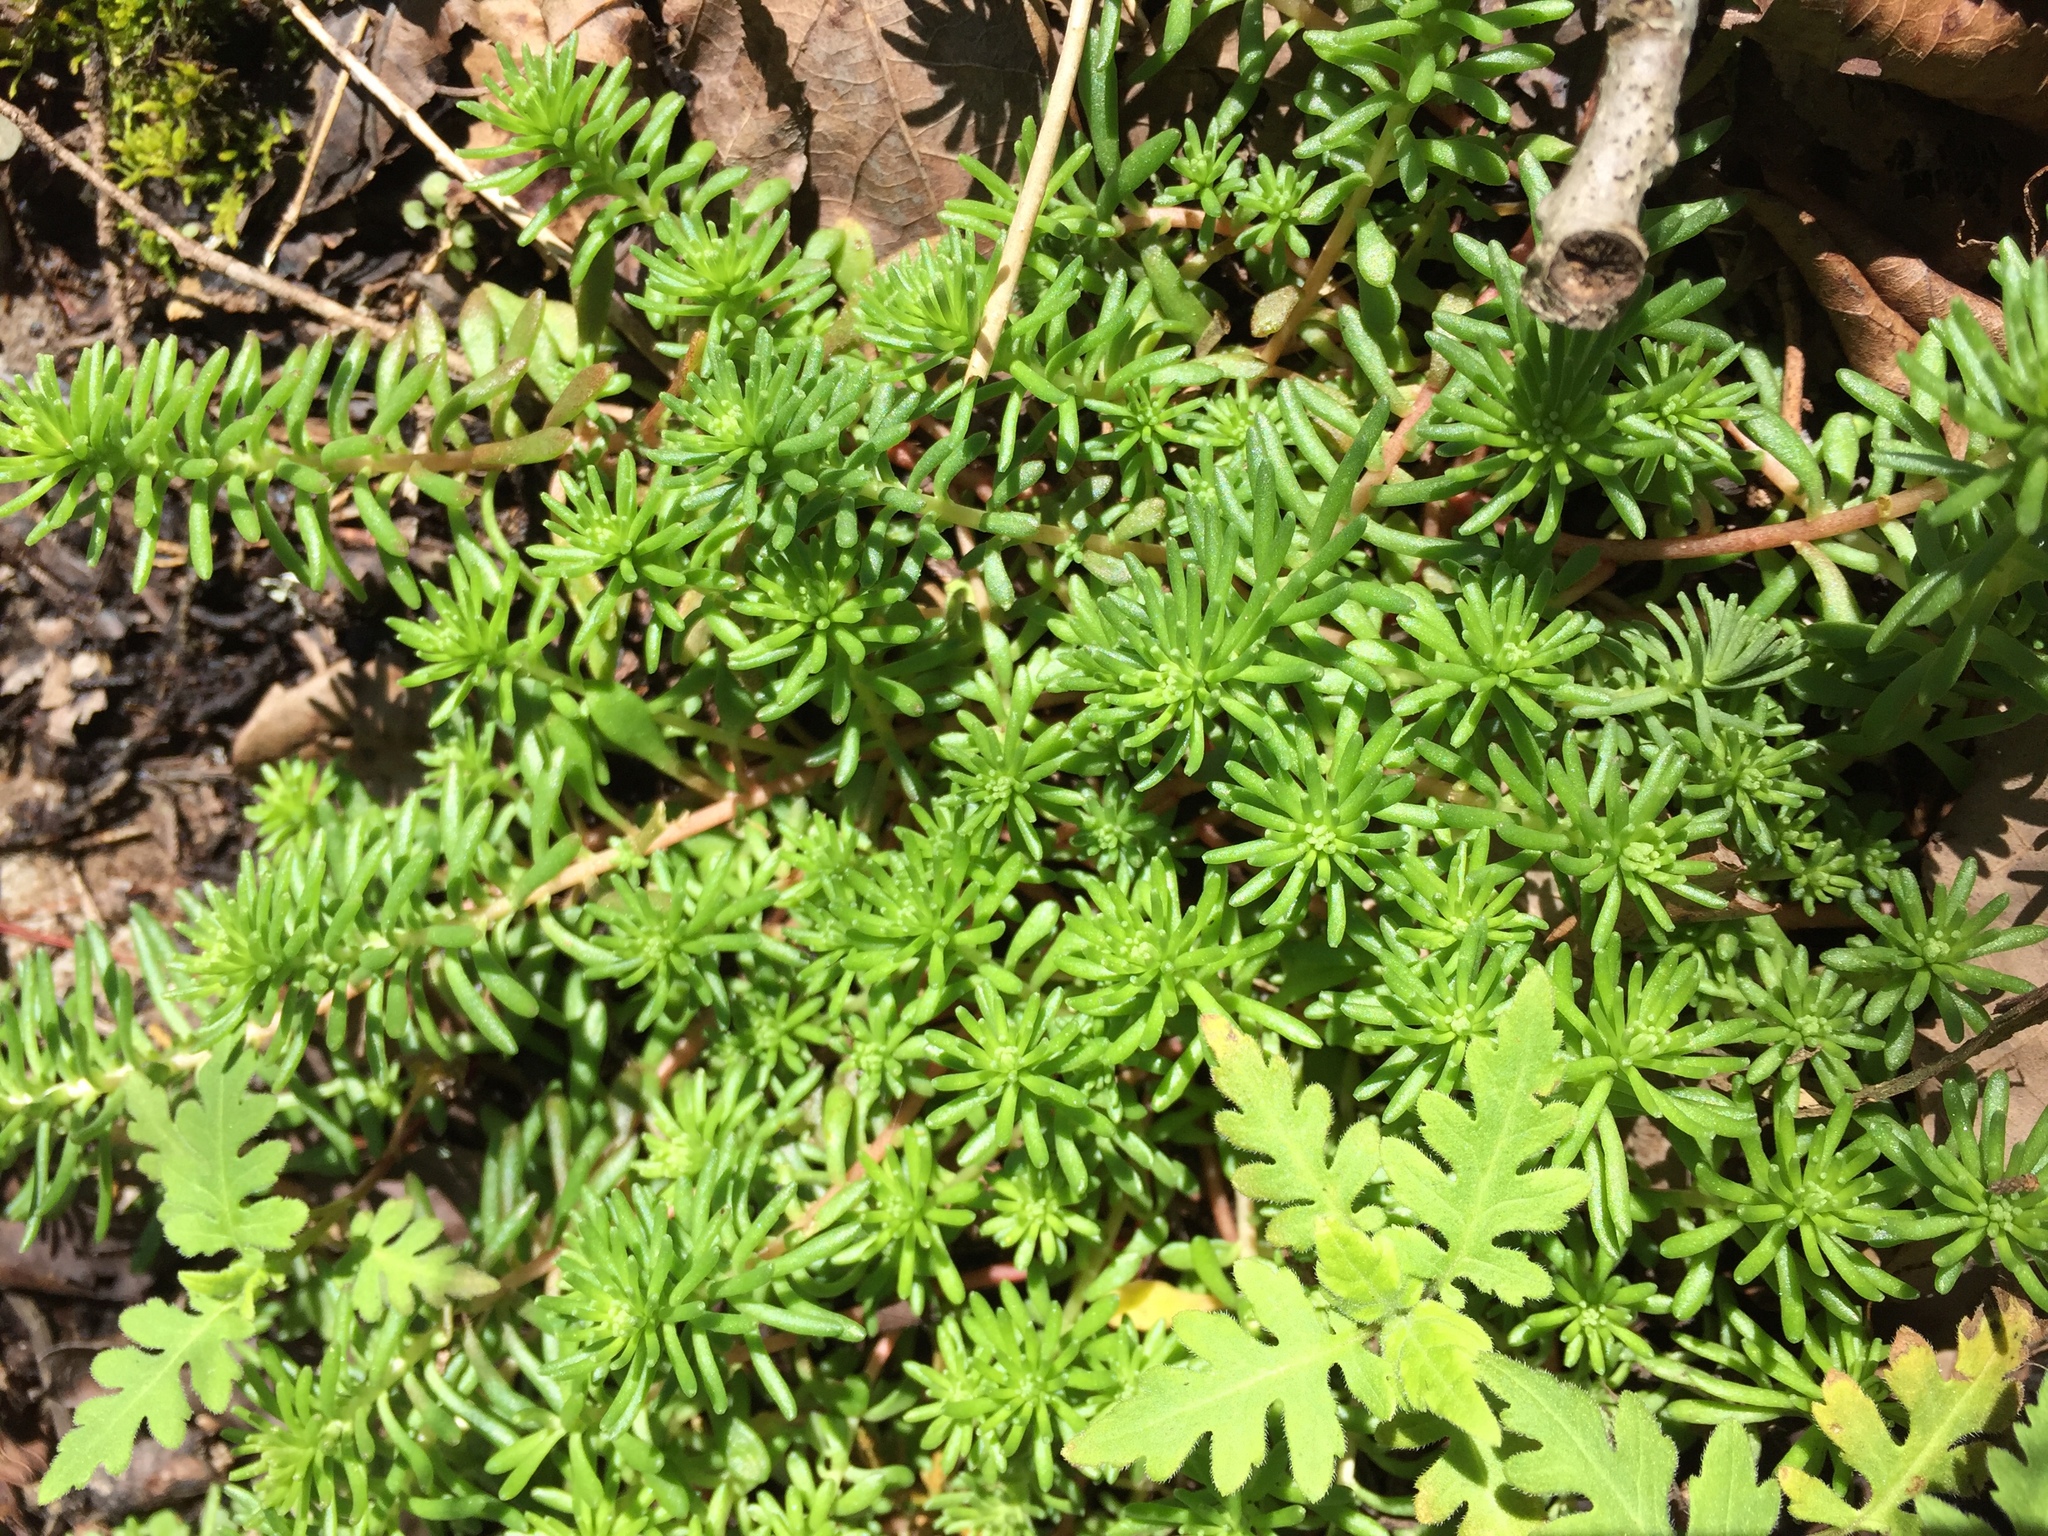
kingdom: Plantae
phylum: Tracheophyta
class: Magnoliopsida
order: Saxifragales
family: Crassulaceae
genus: Sedum
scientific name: Sedum pulchellum
